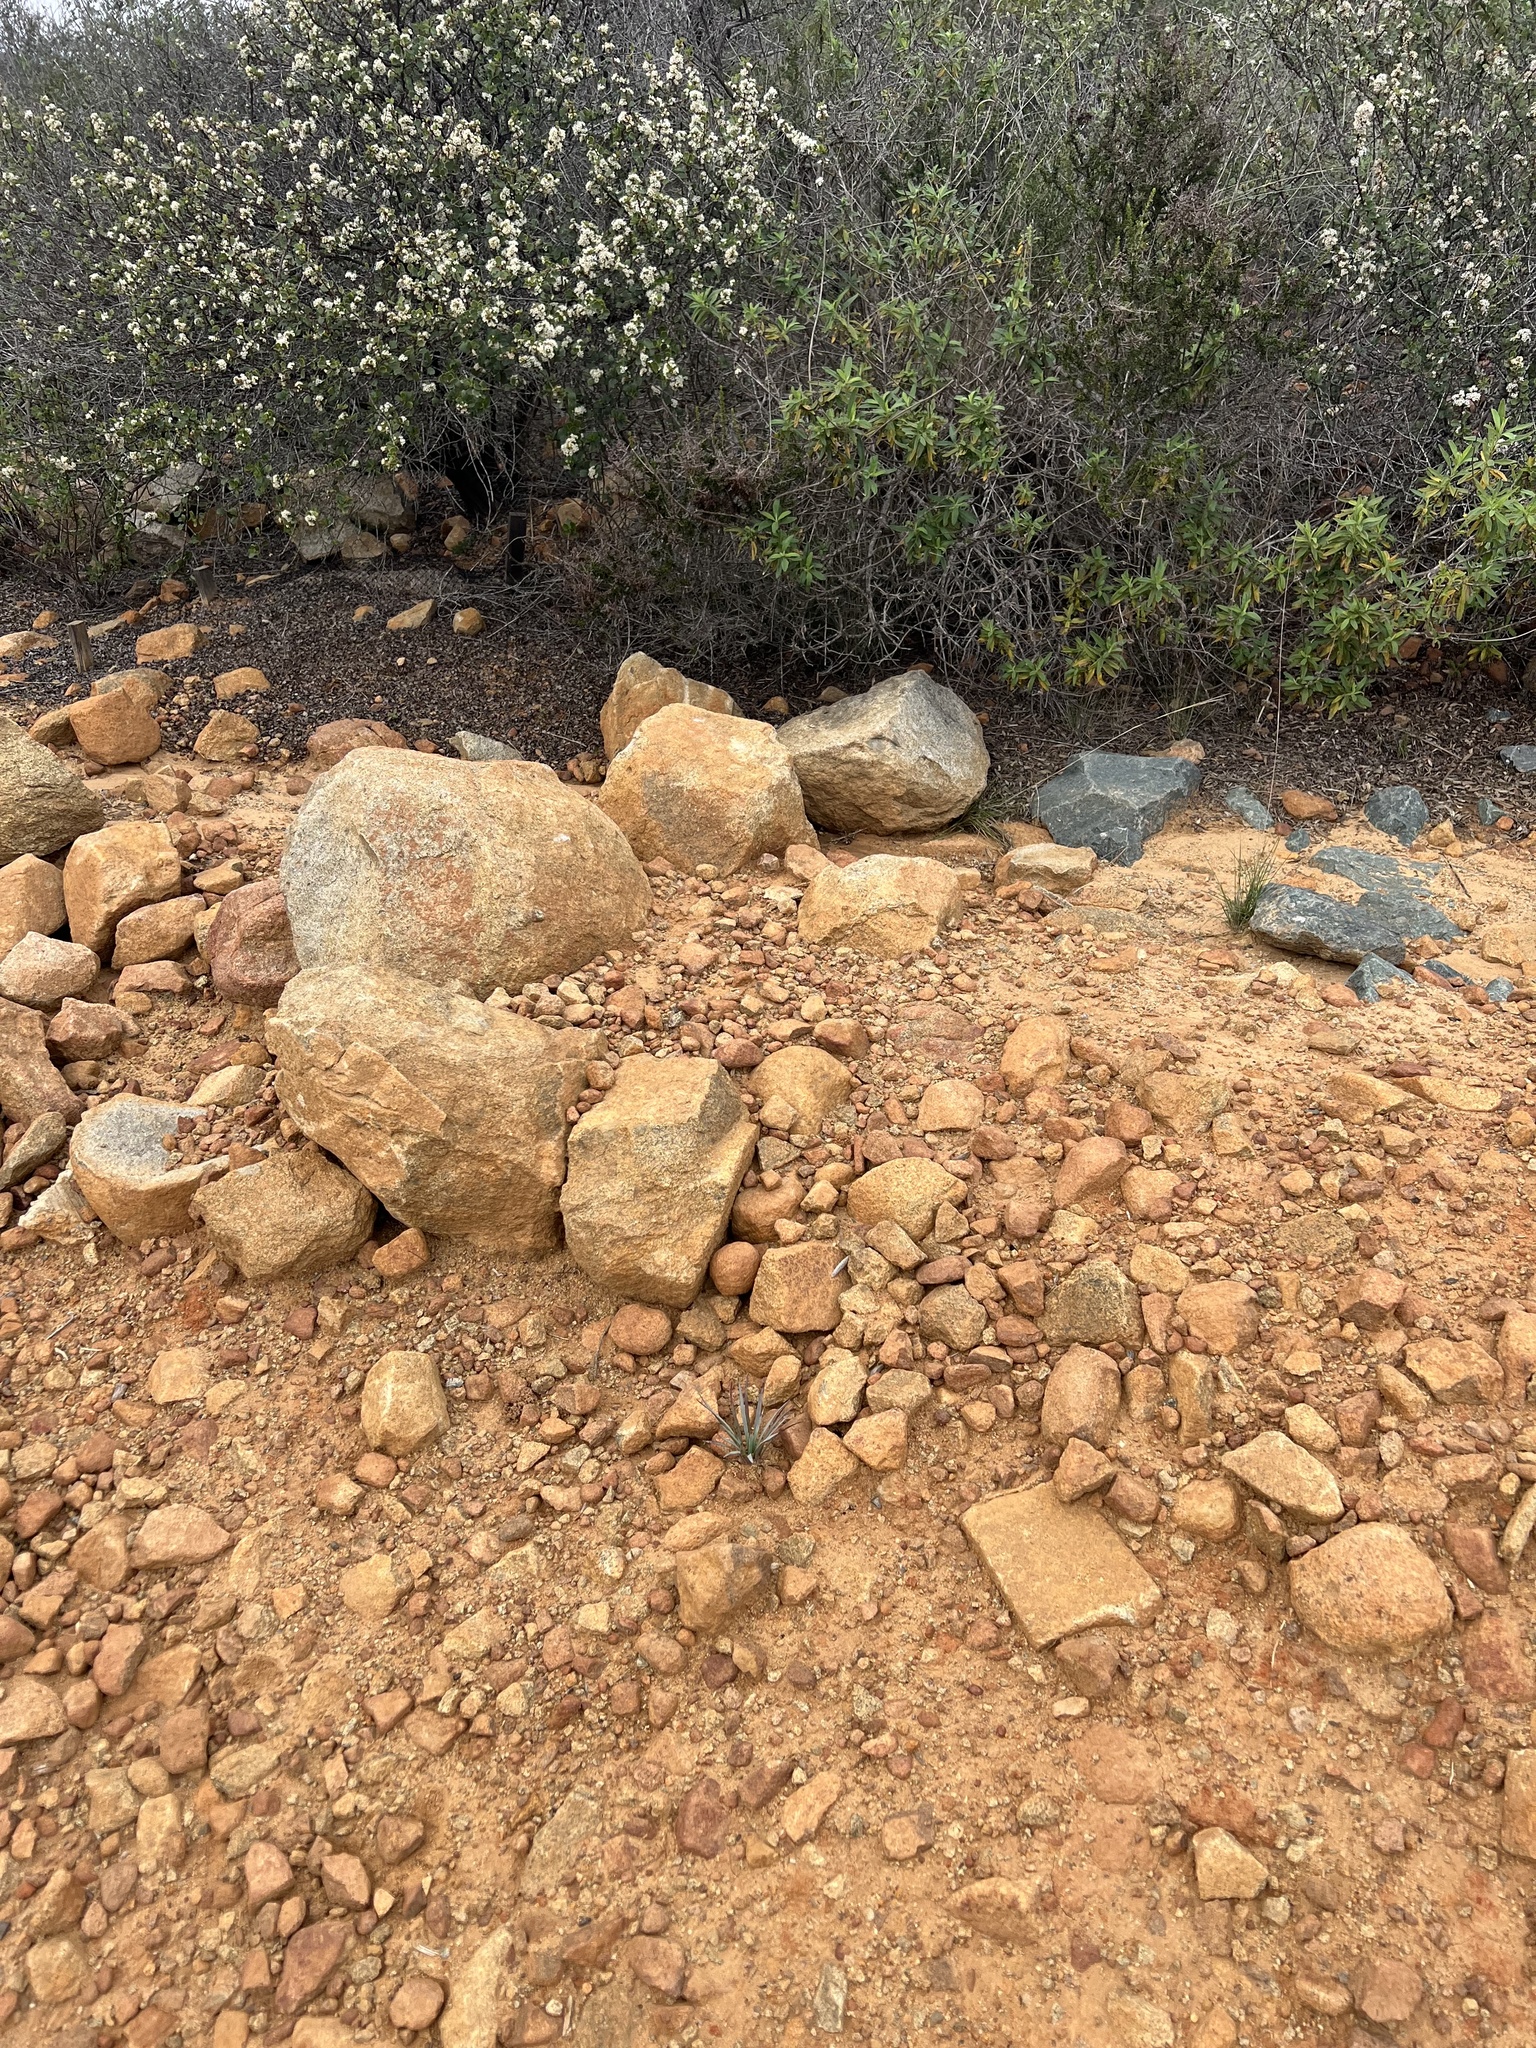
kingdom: Plantae
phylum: Tracheophyta
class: Liliopsida
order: Asparagales
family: Asparagaceae
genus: Hesperoyucca
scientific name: Hesperoyucca whipplei
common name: Our lord's-candle
